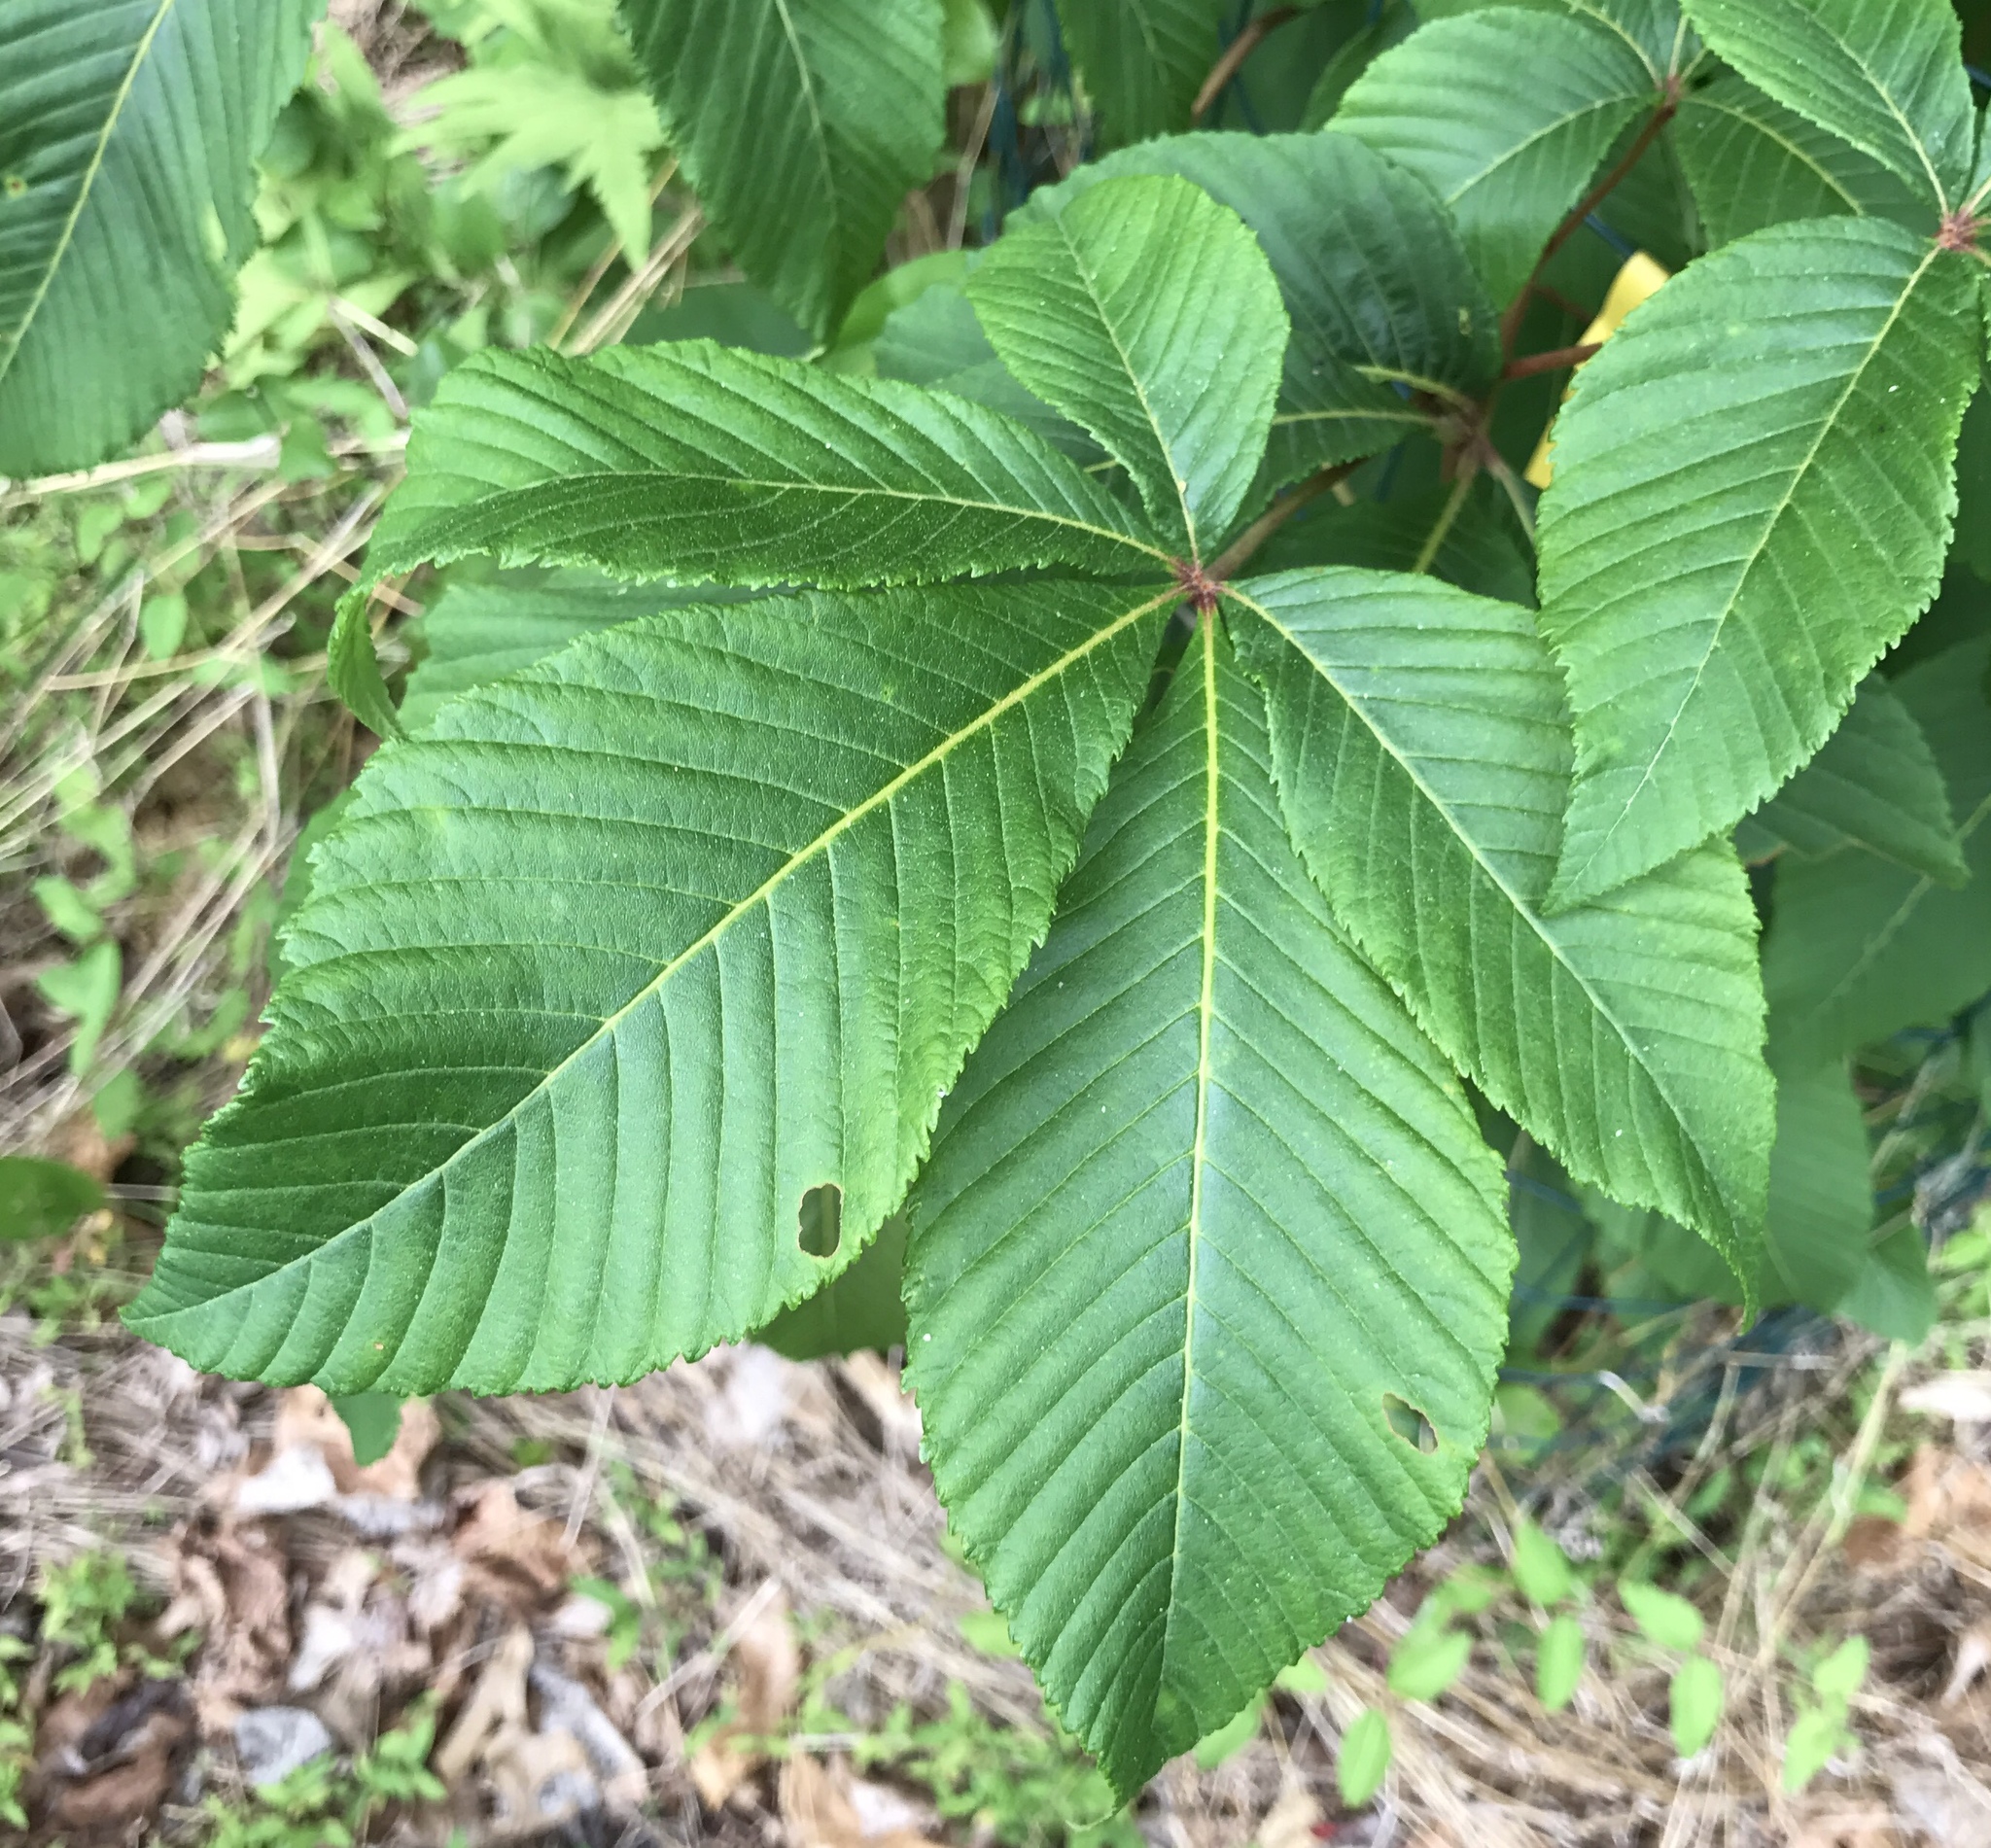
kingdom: Plantae
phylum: Tracheophyta
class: Magnoliopsida
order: Sapindales
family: Sapindaceae
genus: Aesculus
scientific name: Aesculus pavia
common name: Red buckeye
